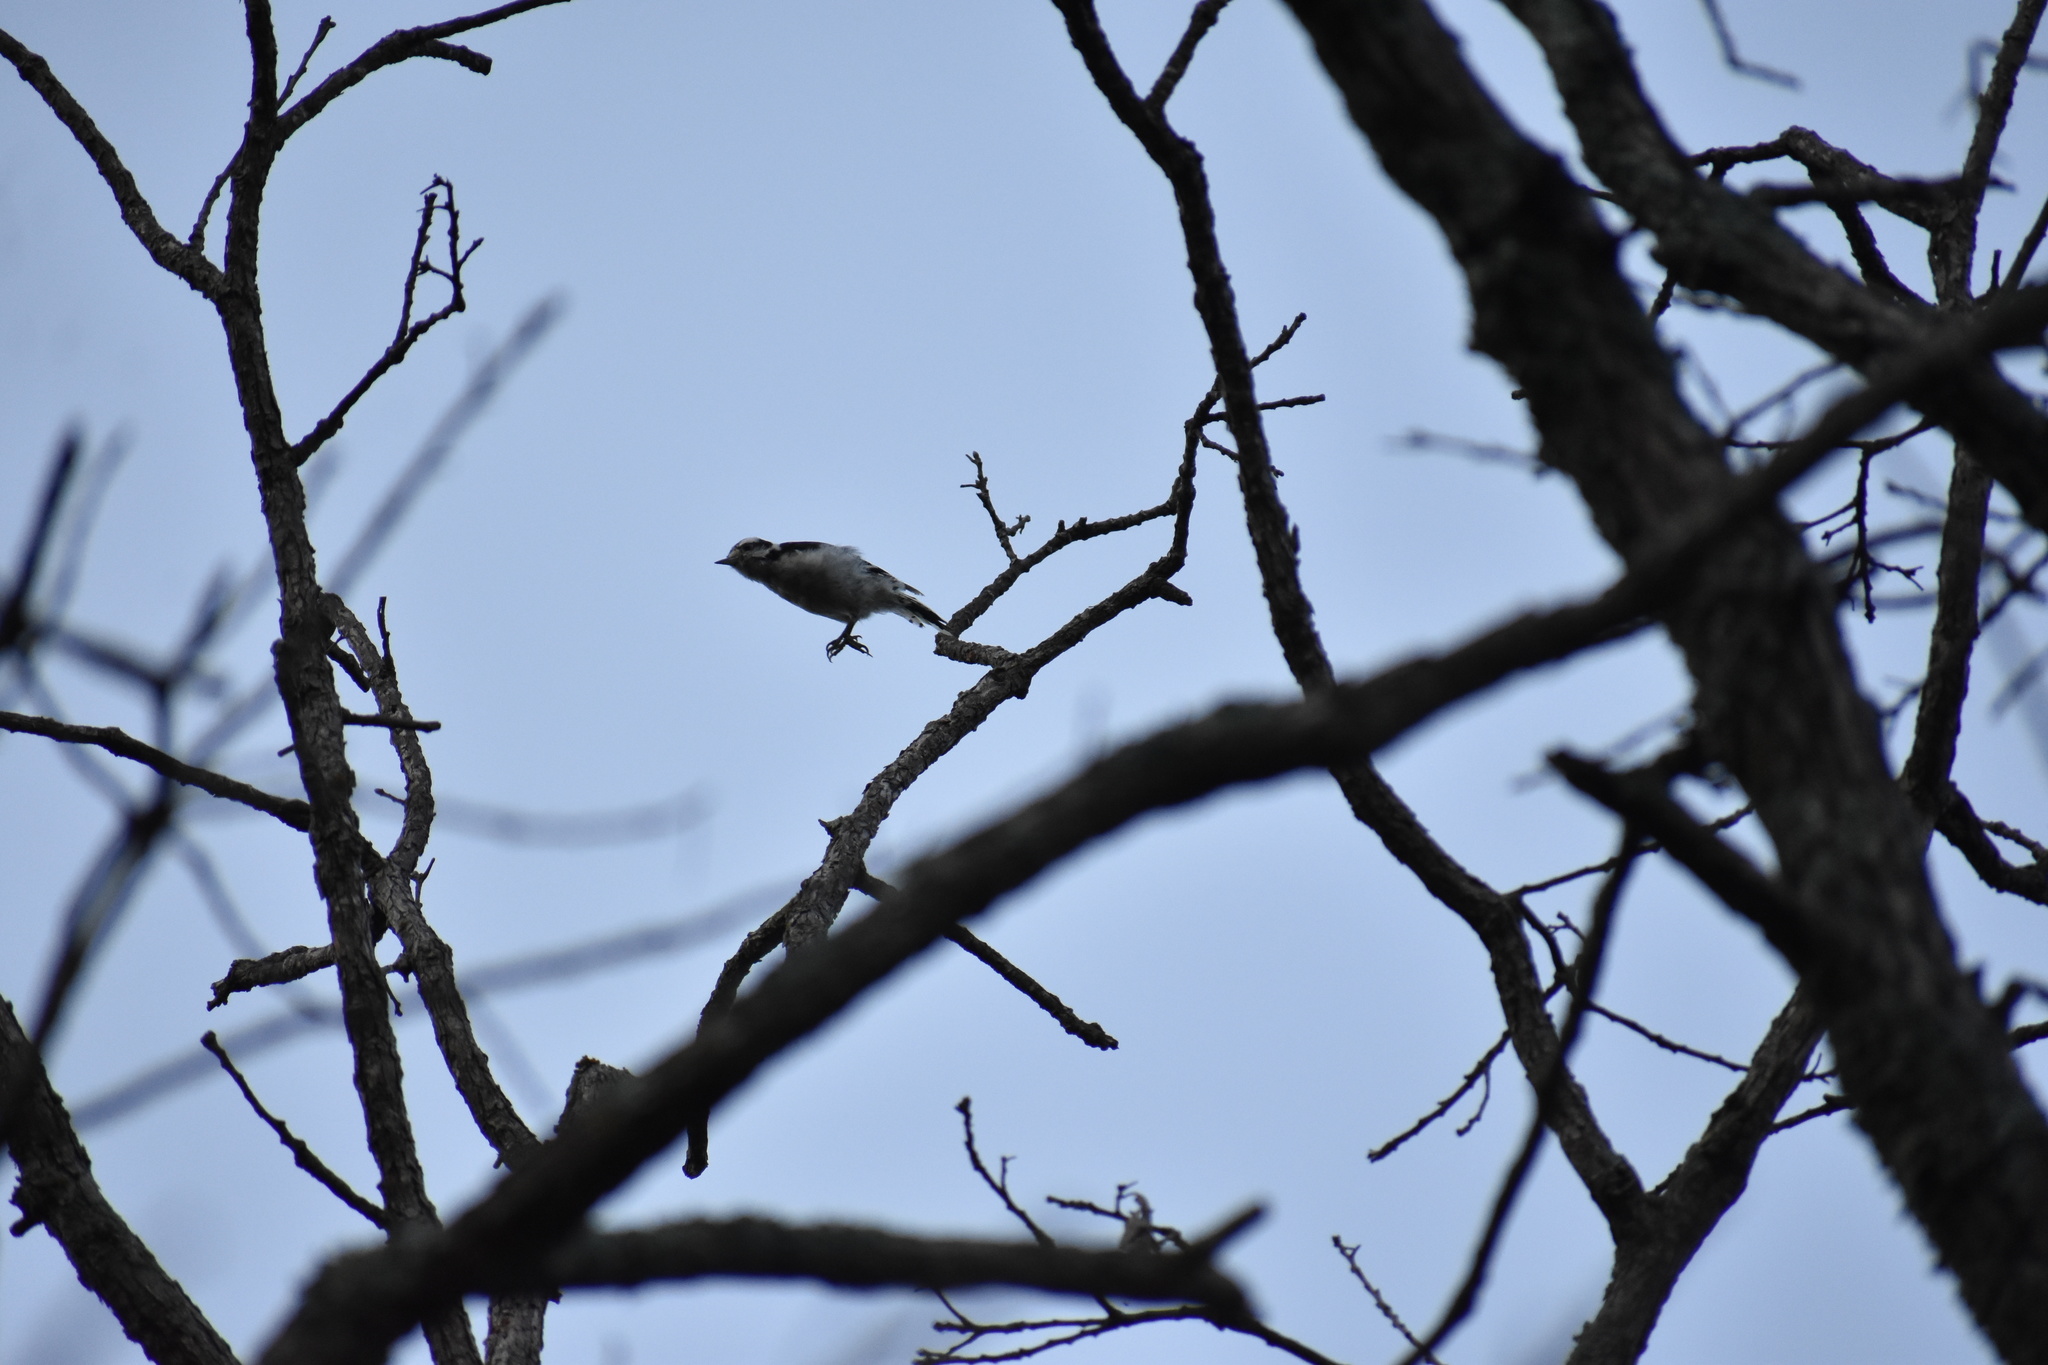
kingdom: Animalia
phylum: Chordata
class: Aves
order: Piciformes
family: Picidae
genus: Dryobates
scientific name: Dryobates pubescens
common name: Downy woodpecker
